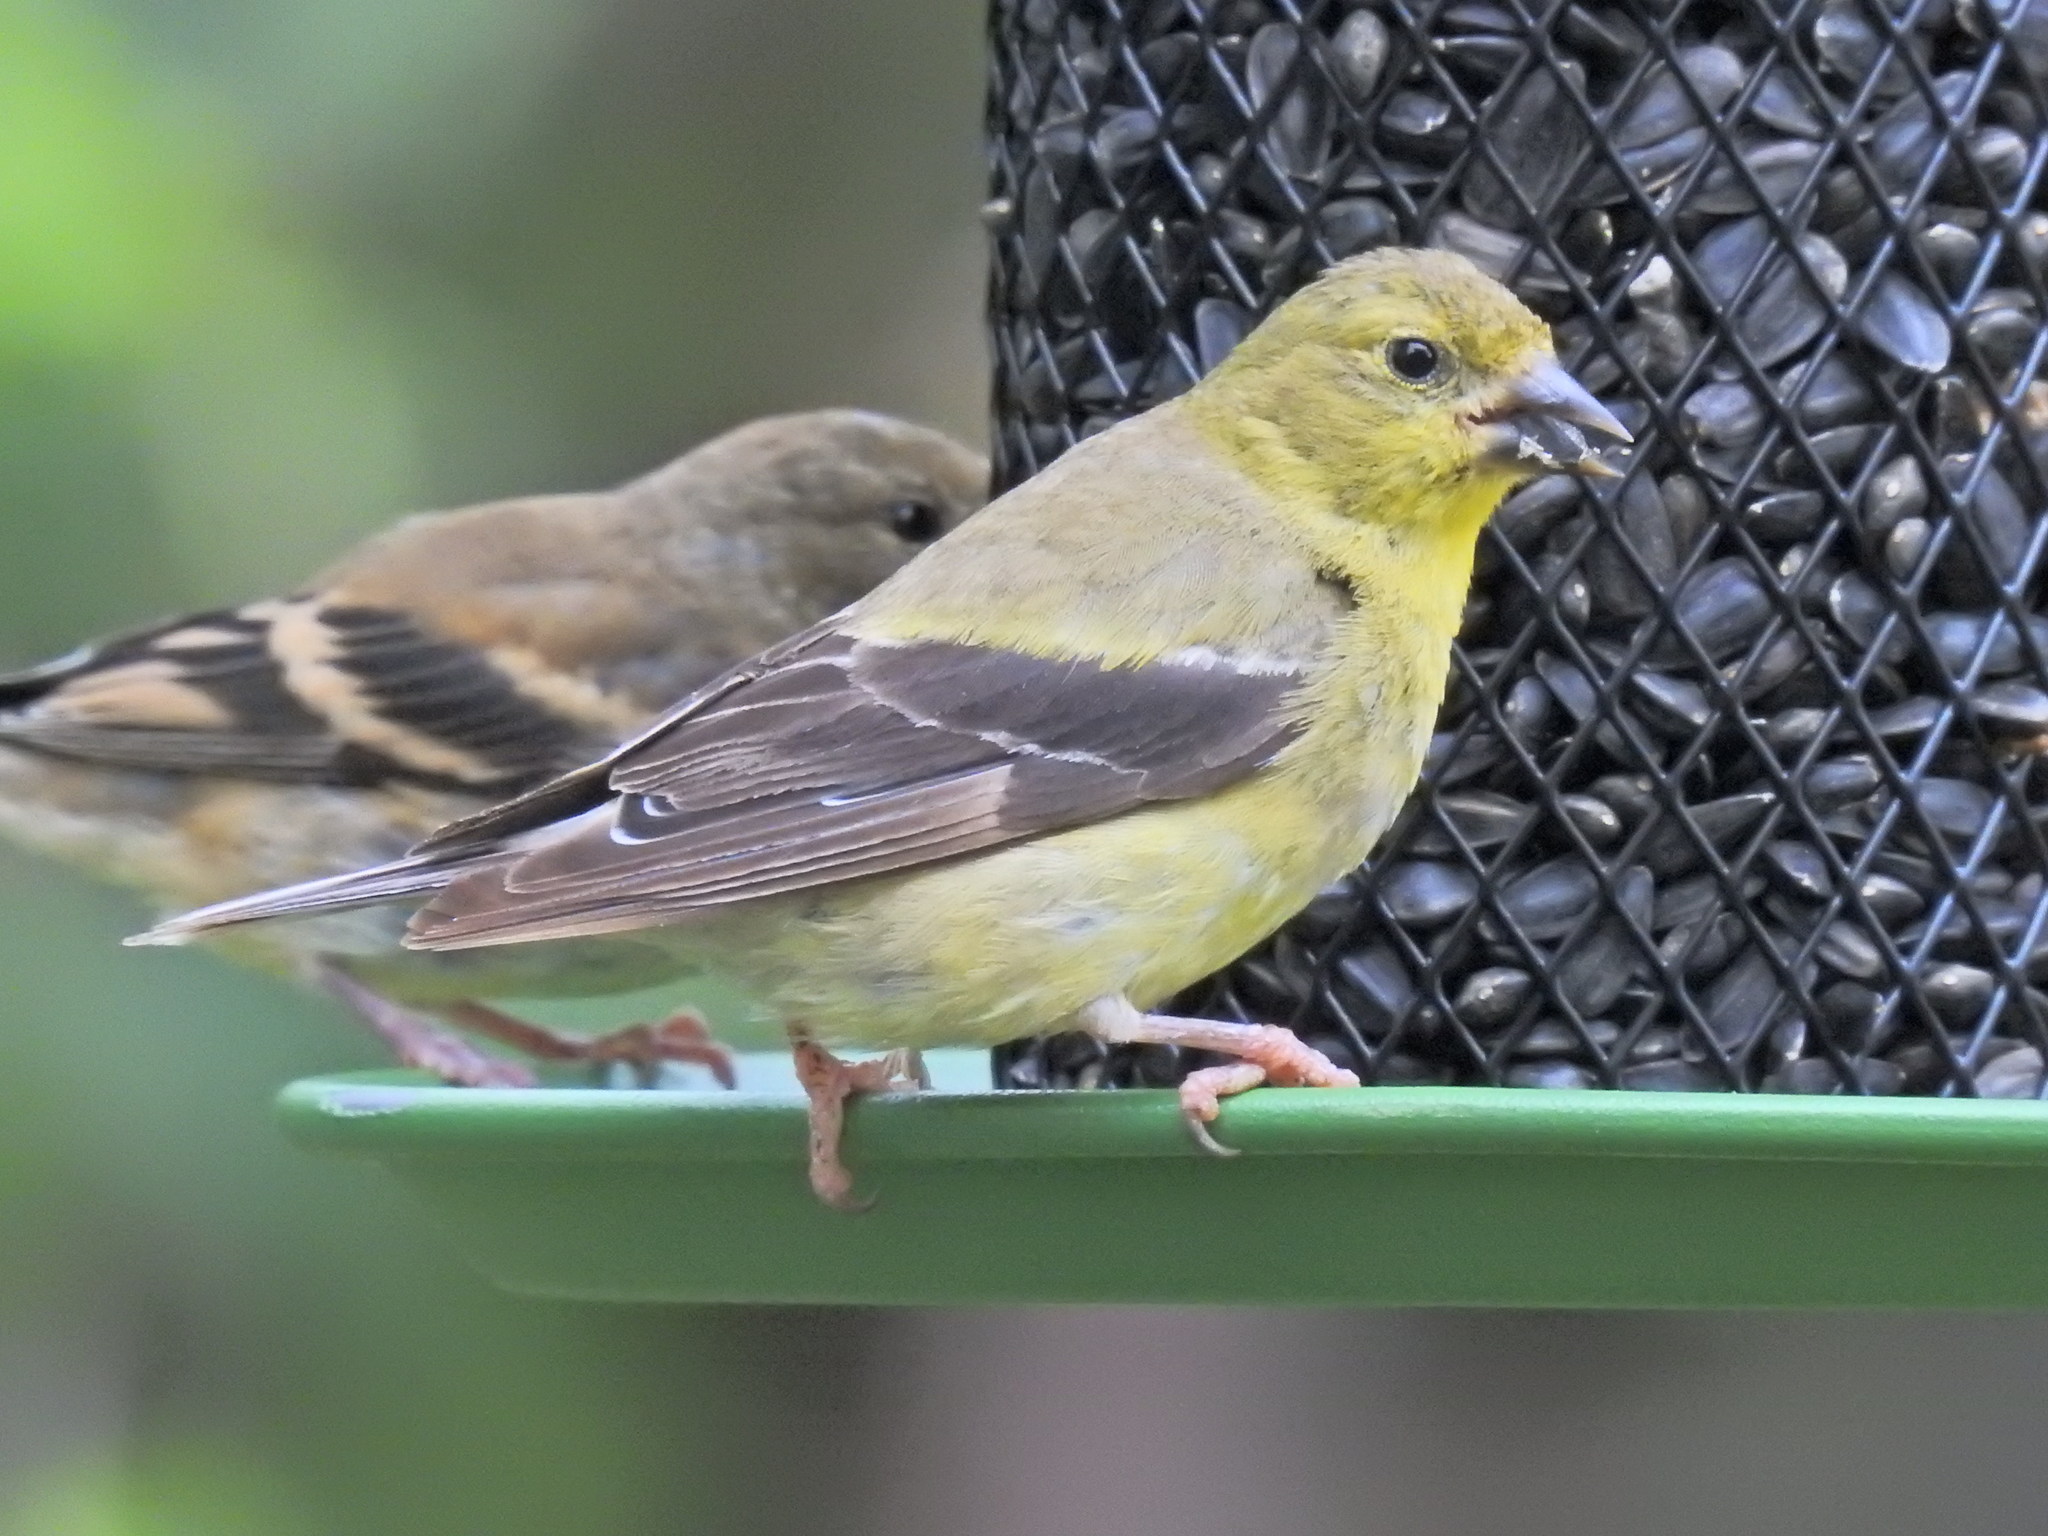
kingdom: Animalia
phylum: Chordata
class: Aves
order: Passeriformes
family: Fringillidae
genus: Spinus
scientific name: Spinus tristis
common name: American goldfinch
